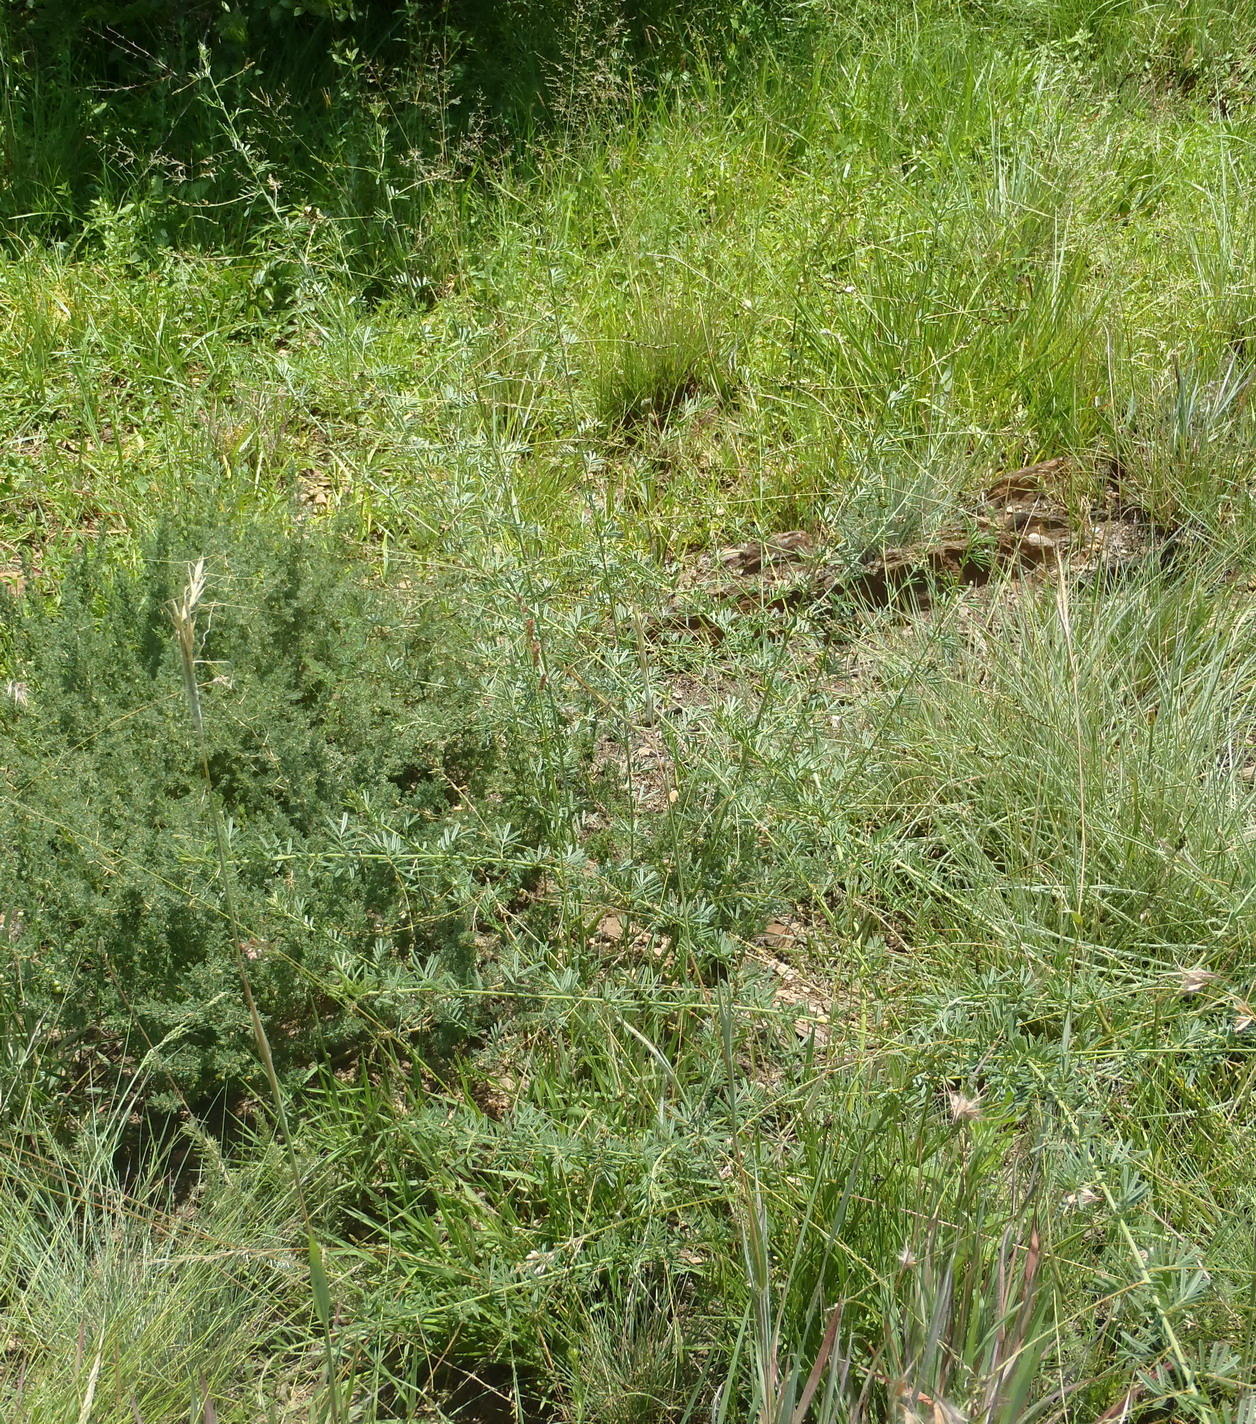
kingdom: Plantae
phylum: Tracheophyta
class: Magnoliopsida
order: Fabales
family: Fabaceae
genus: Indigofera
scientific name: Indigofera punctata
